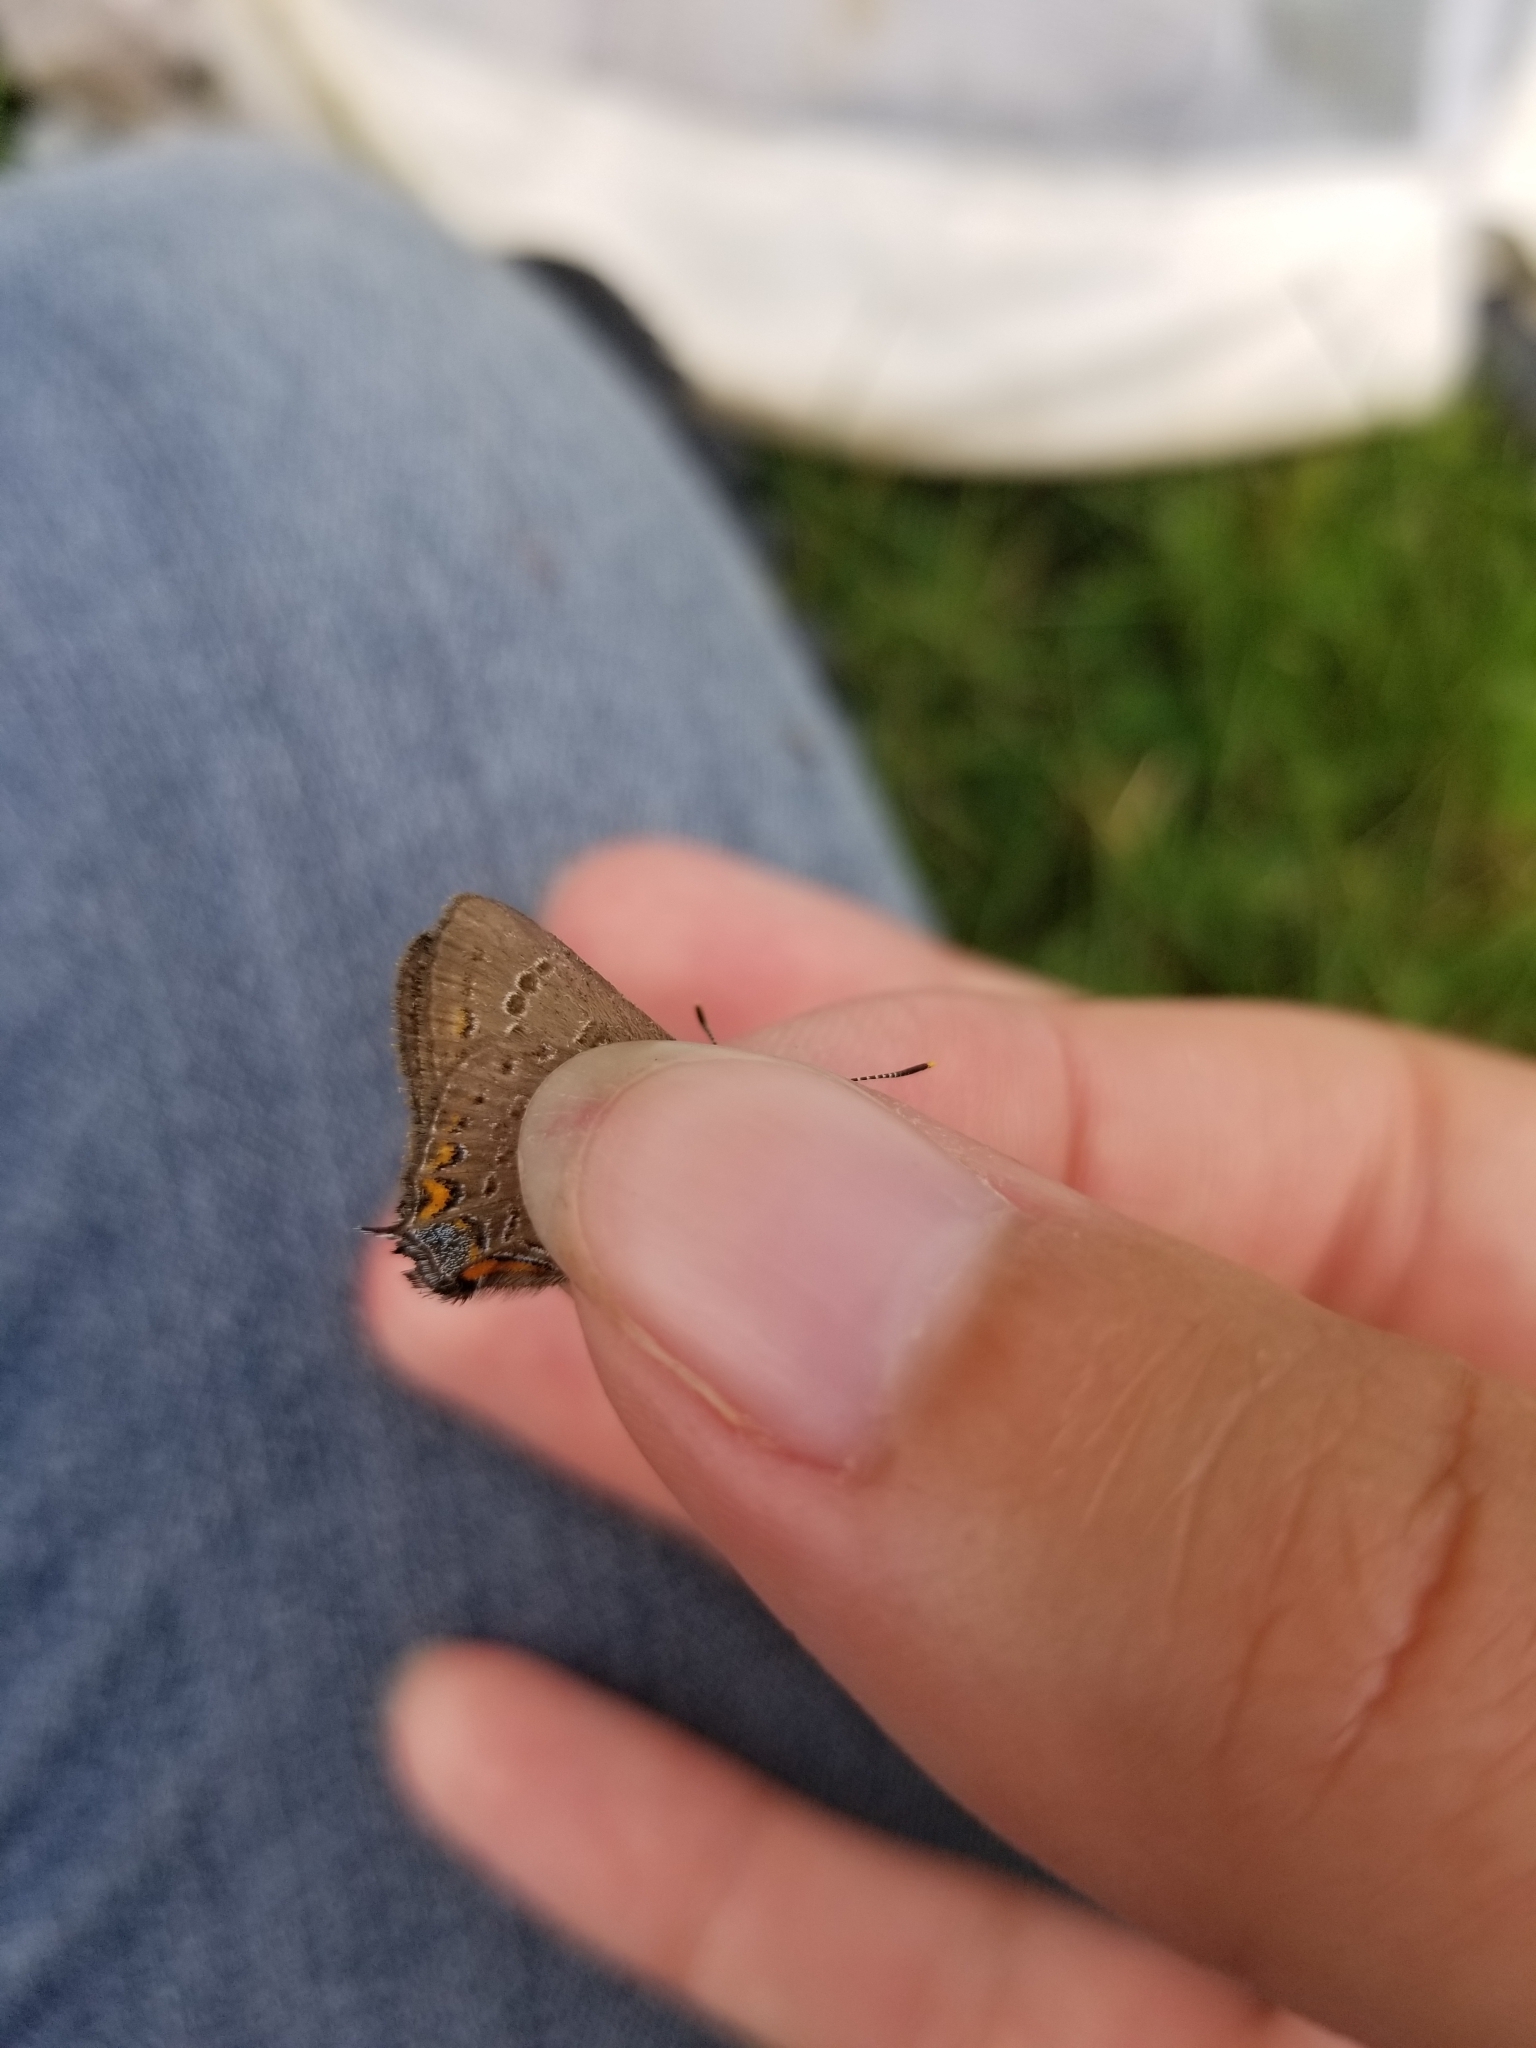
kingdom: Animalia
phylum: Arthropoda
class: Insecta
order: Lepidoptera
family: Lycaenidae
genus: Satyrium
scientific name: Satyrium edwardsii
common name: Edwards' hairstreak
